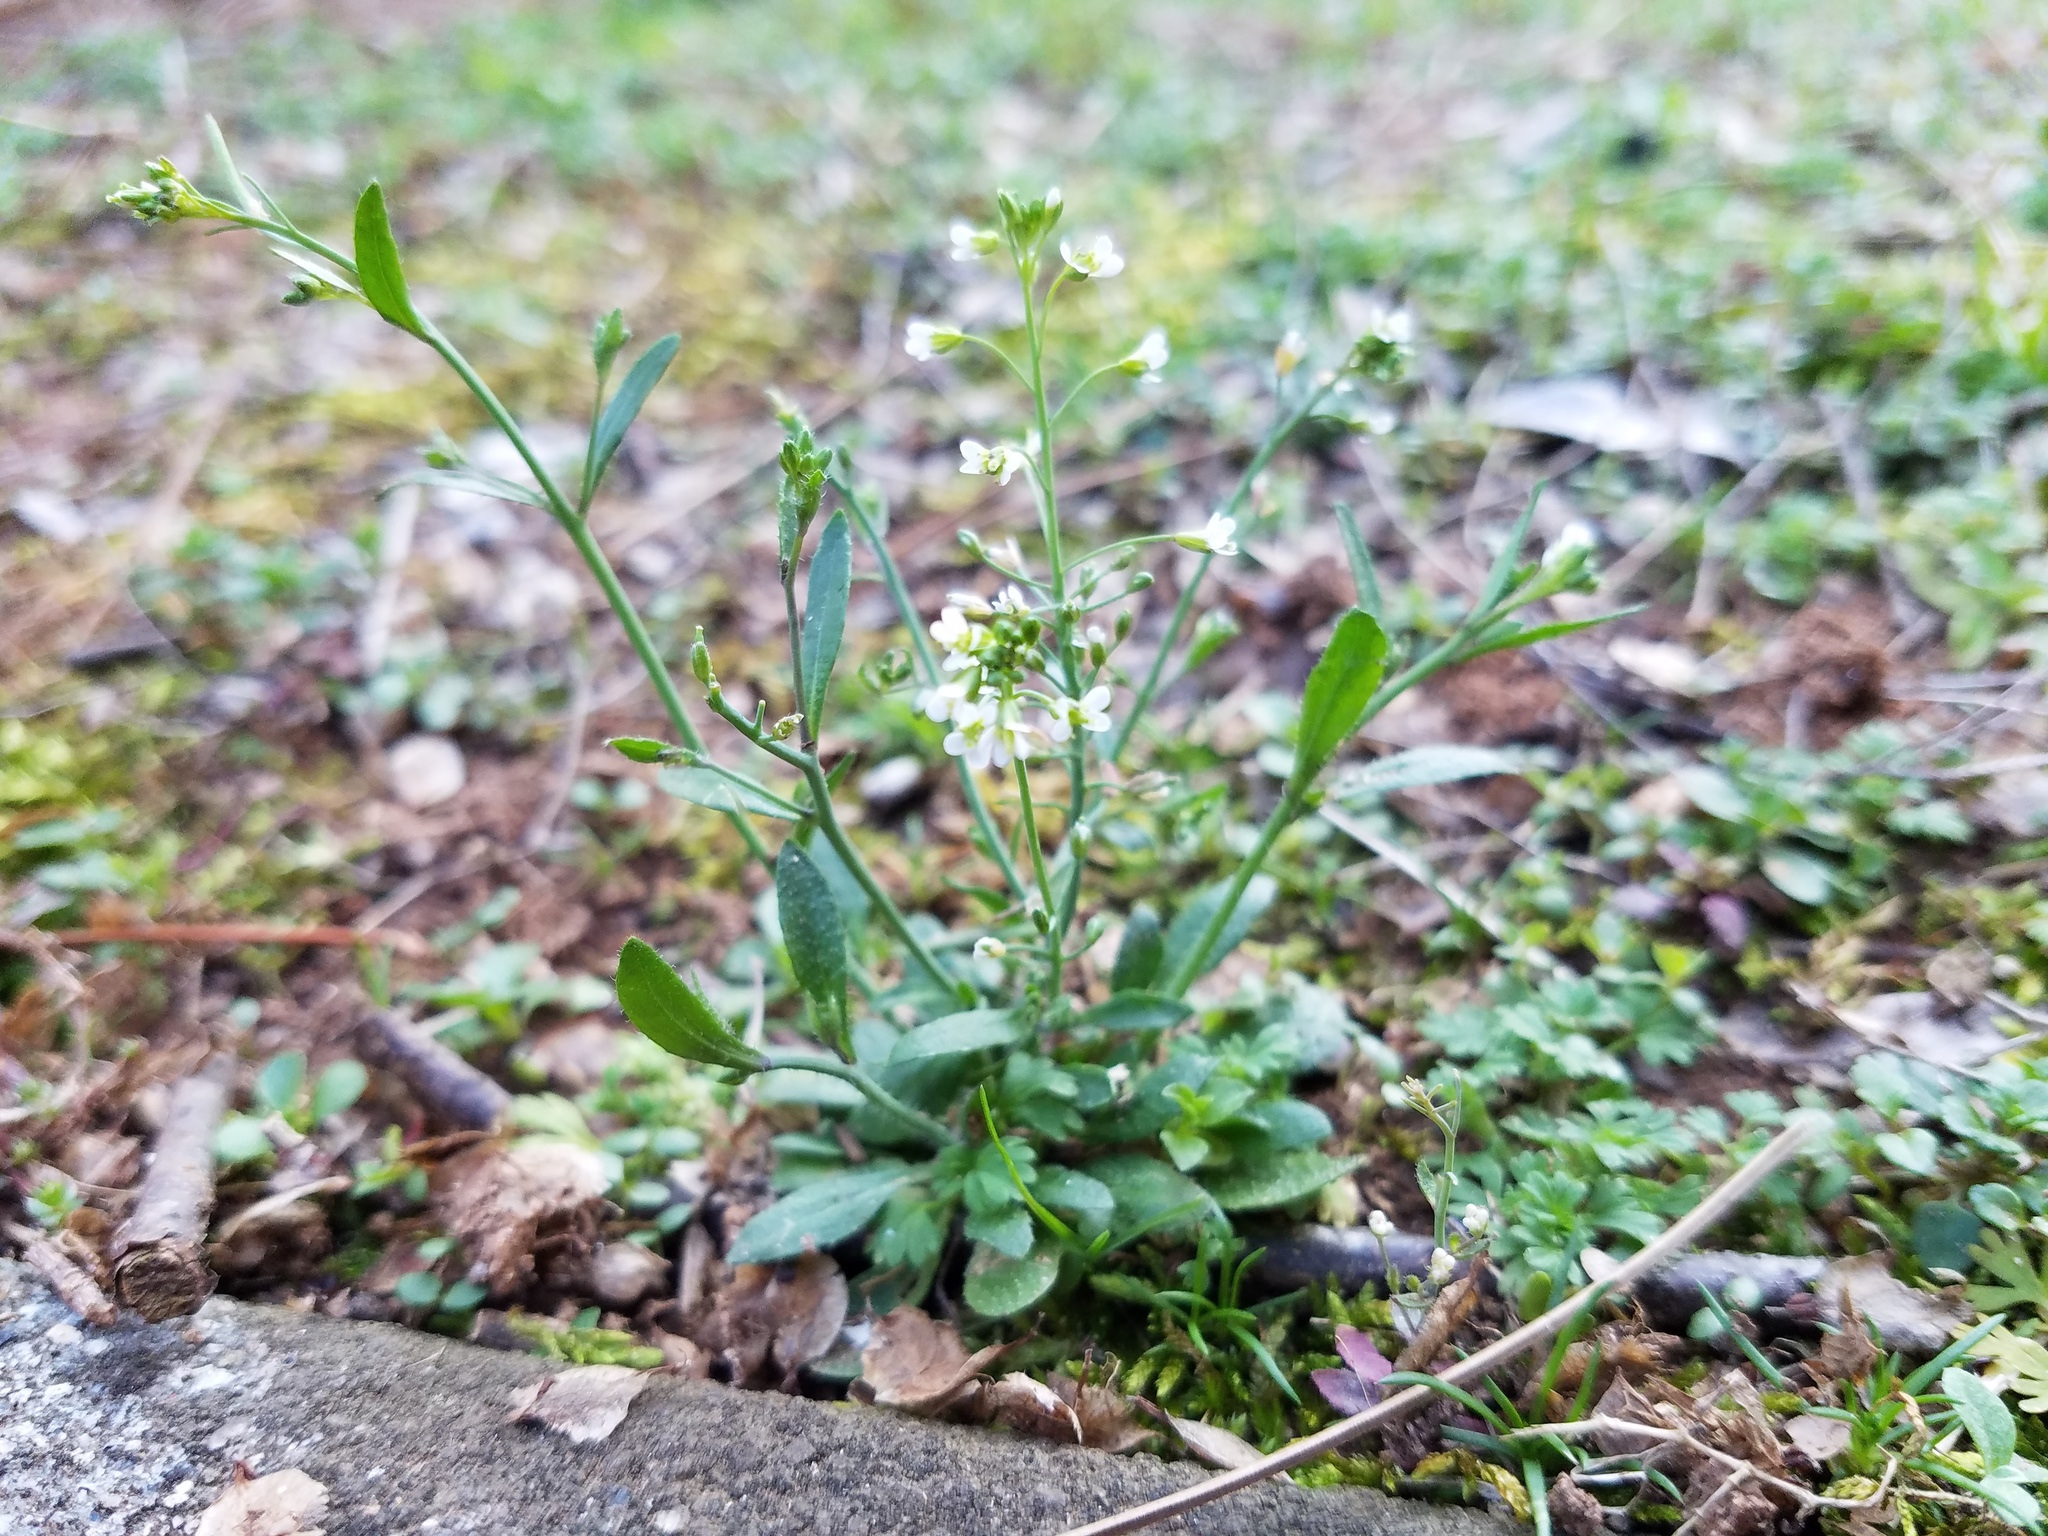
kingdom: Plantae
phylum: Tracheophyta
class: Magnoliopsida
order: Brassicales
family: Brassicaceae
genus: Arabidopsis
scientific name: Arabidopsis thaliana
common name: Thale cress
